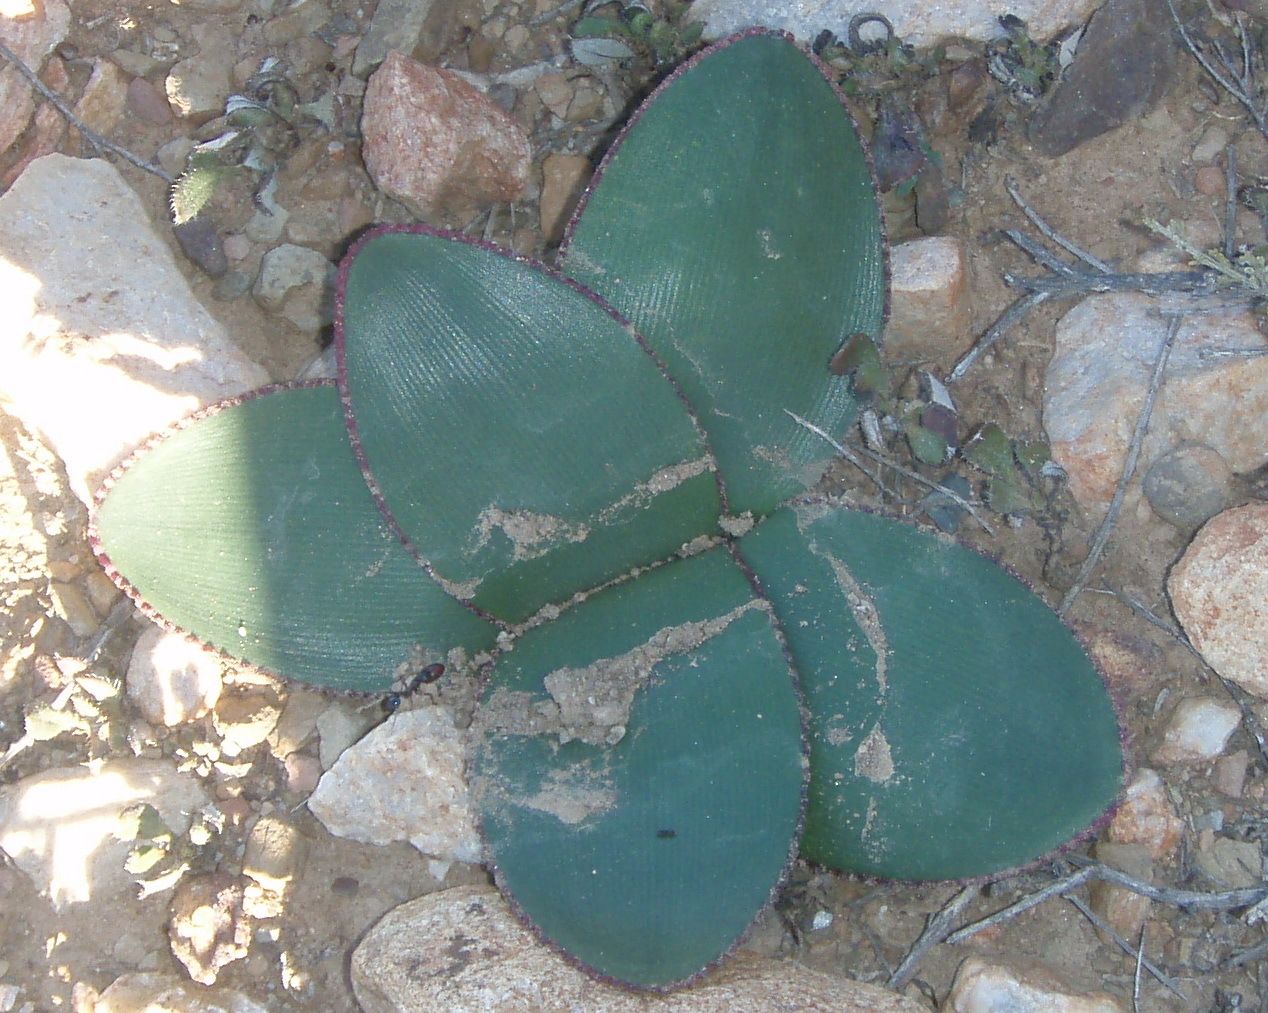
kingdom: Plantae
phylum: Tracheophyta
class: Liliopsida
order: Asparagales
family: Amaryllidaceae
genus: Brunsvigia
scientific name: Brunsvigia nervosa
